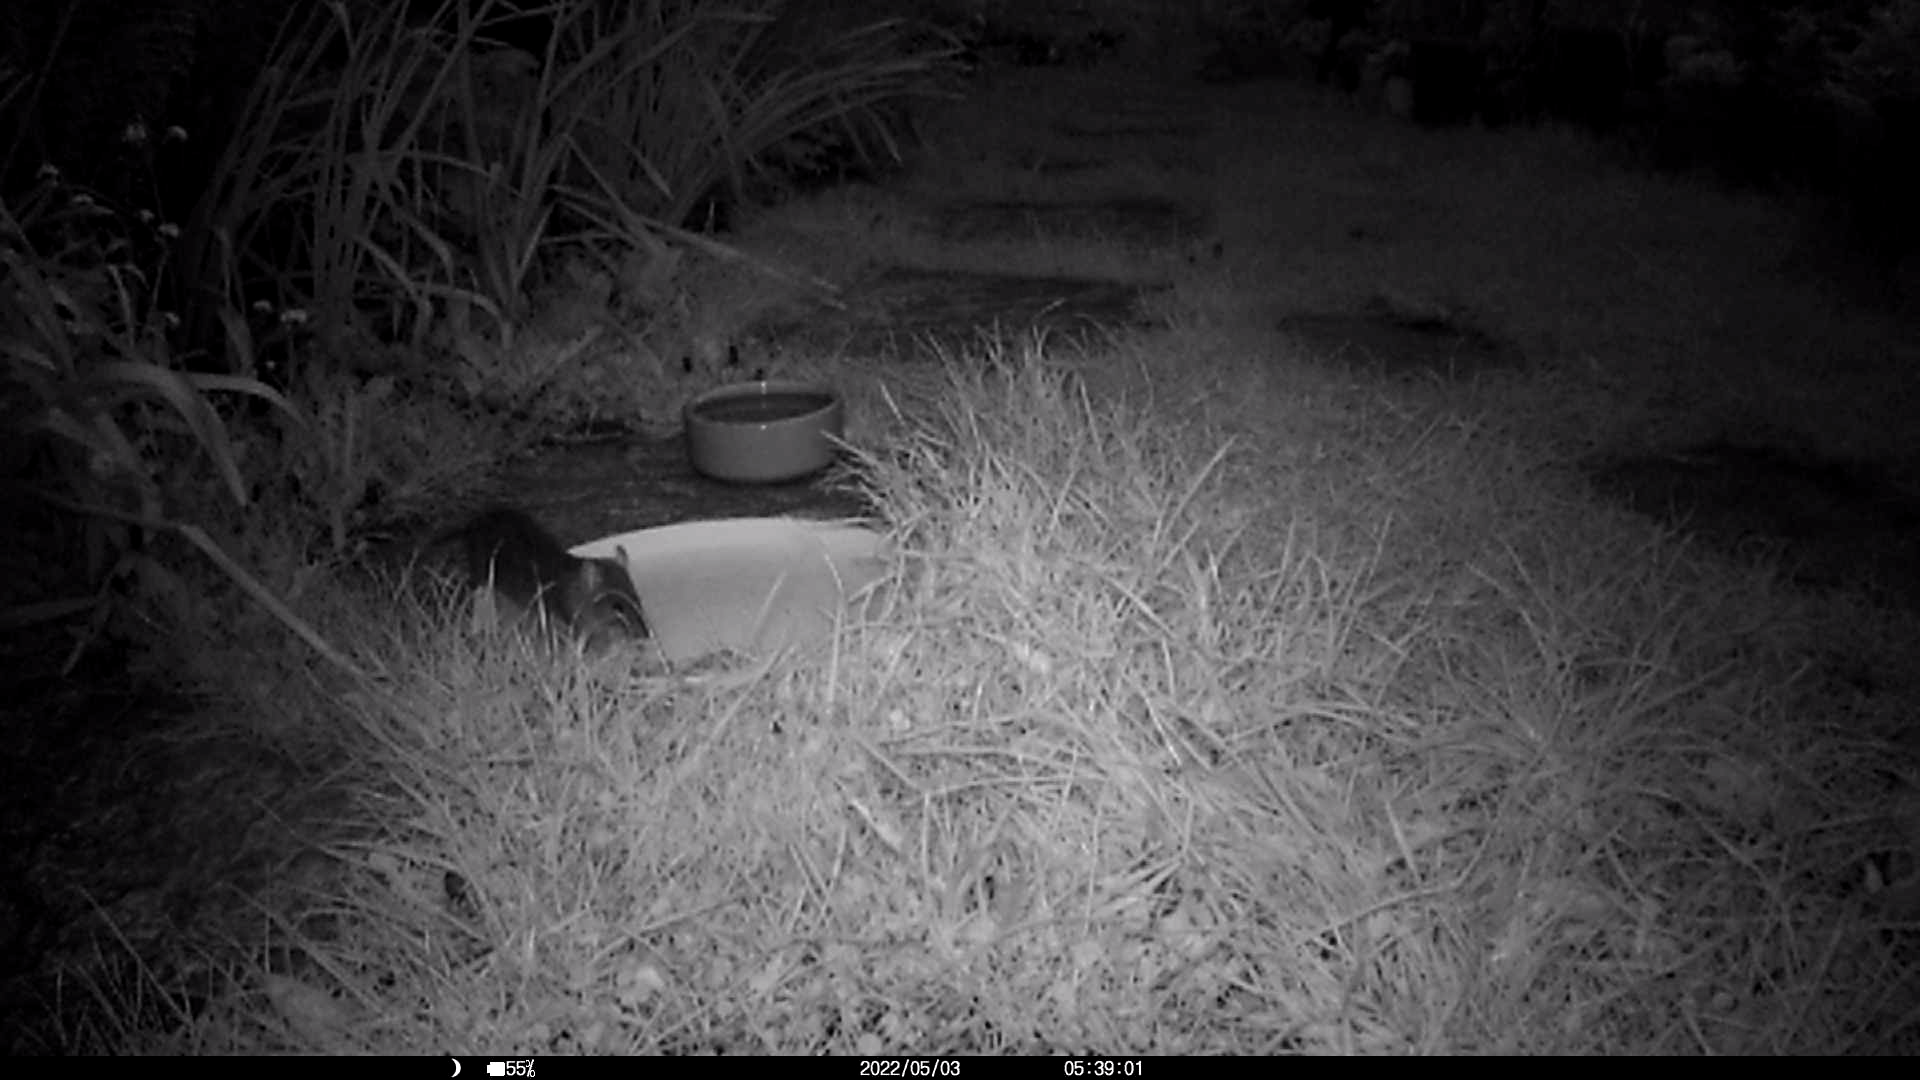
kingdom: Animalia
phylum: Chordata
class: Mammalia
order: Rodentia
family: Muridae
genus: Rattus
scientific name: Rattus norvegicus
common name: Brown rat
